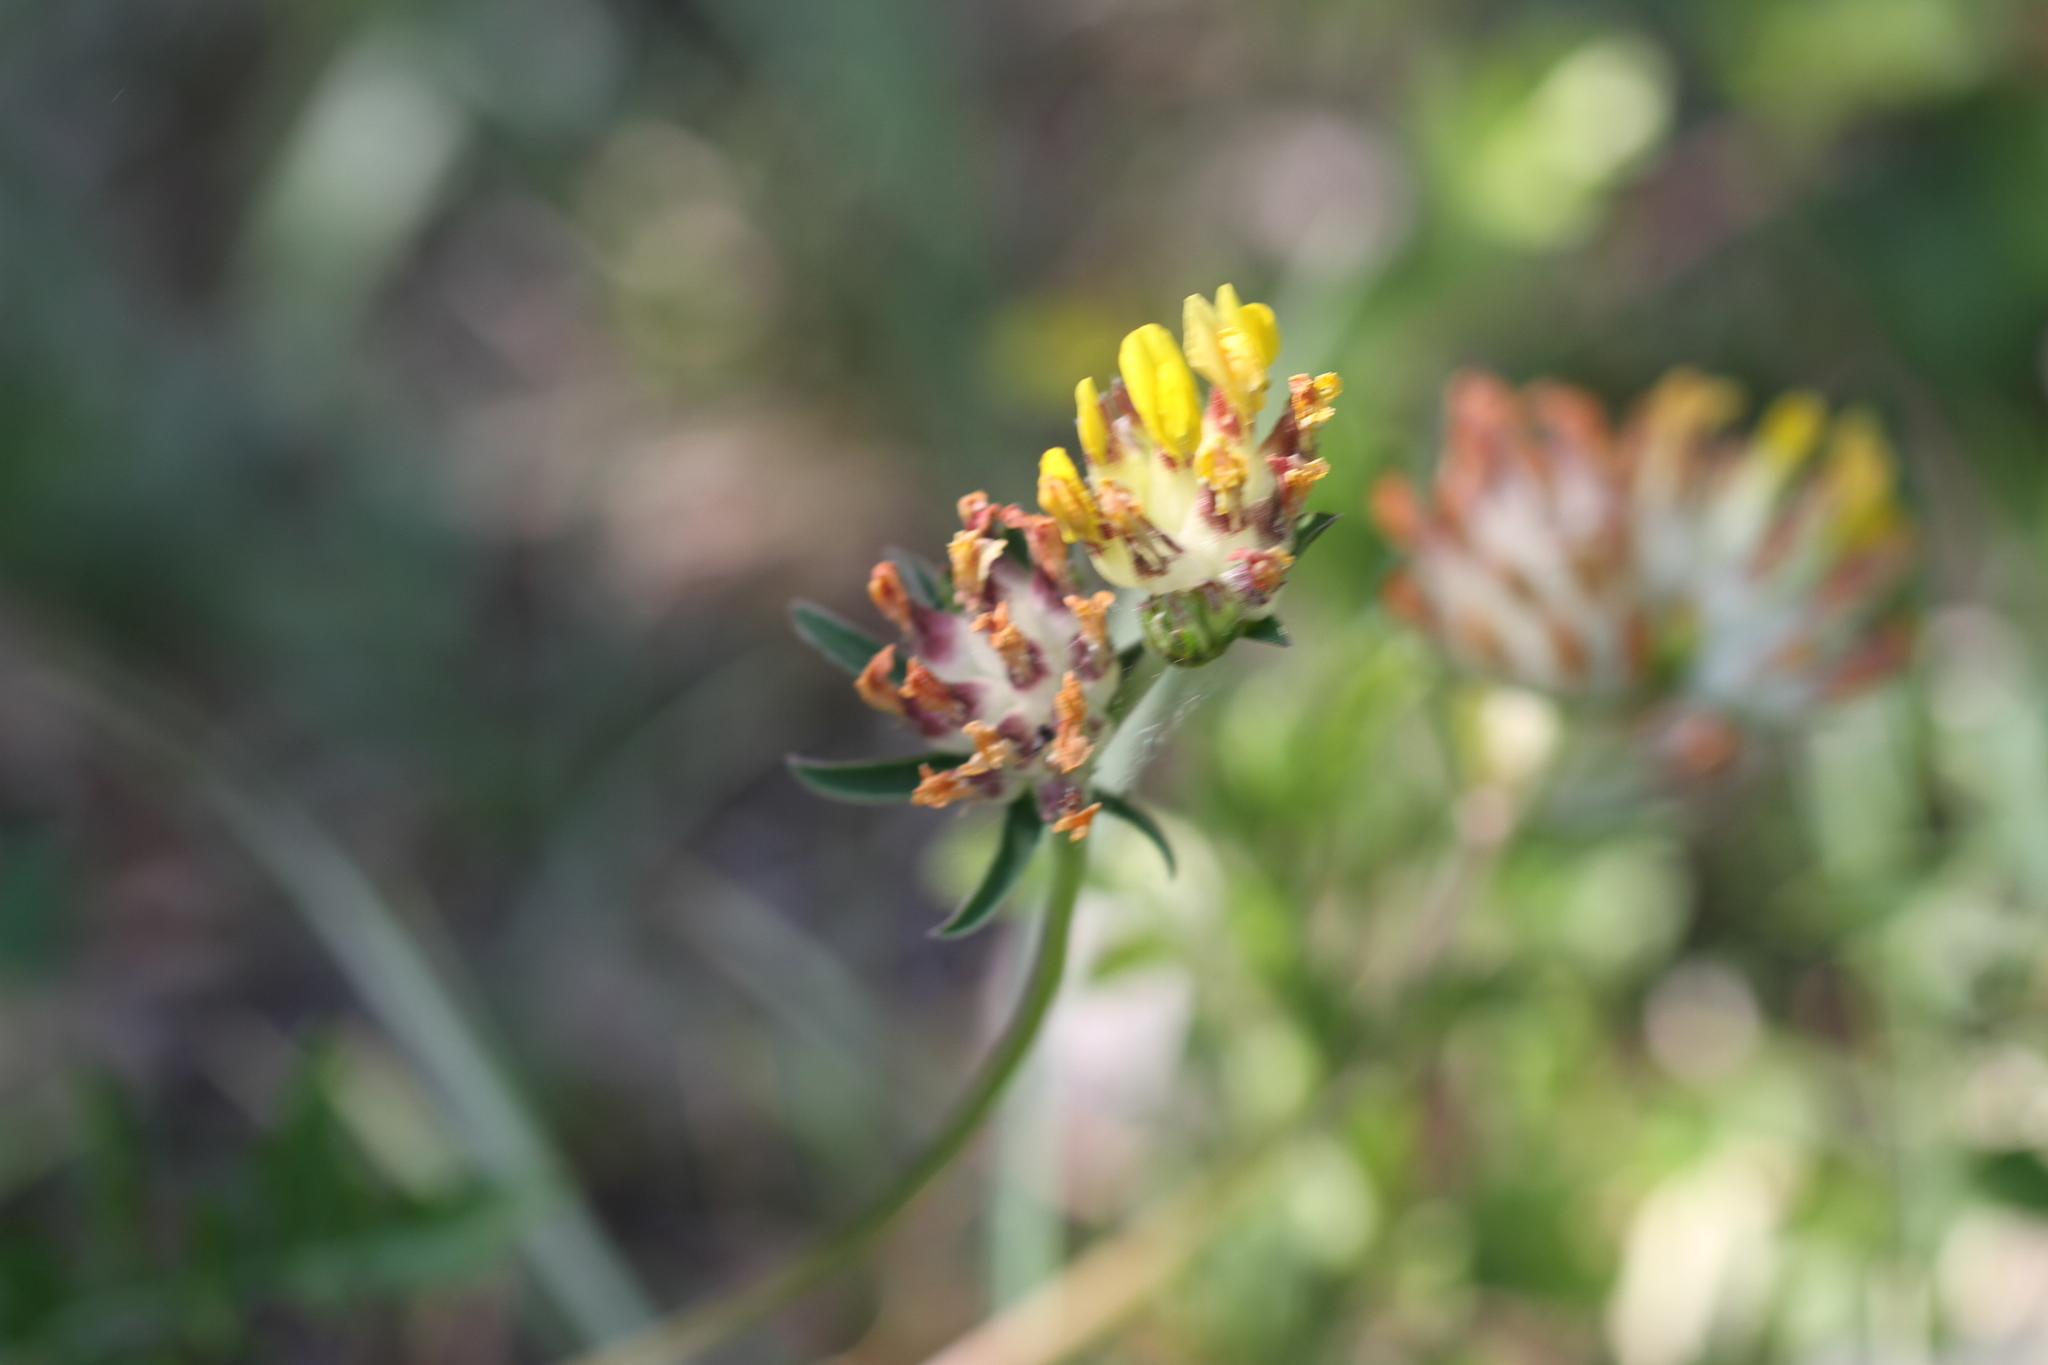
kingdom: Plantae
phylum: Tracheophyta
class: Magnoliopsida
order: Fabales
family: Fabaceae
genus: Anthyllis
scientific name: Anthyllis vulneraria
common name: Kidney vetch
